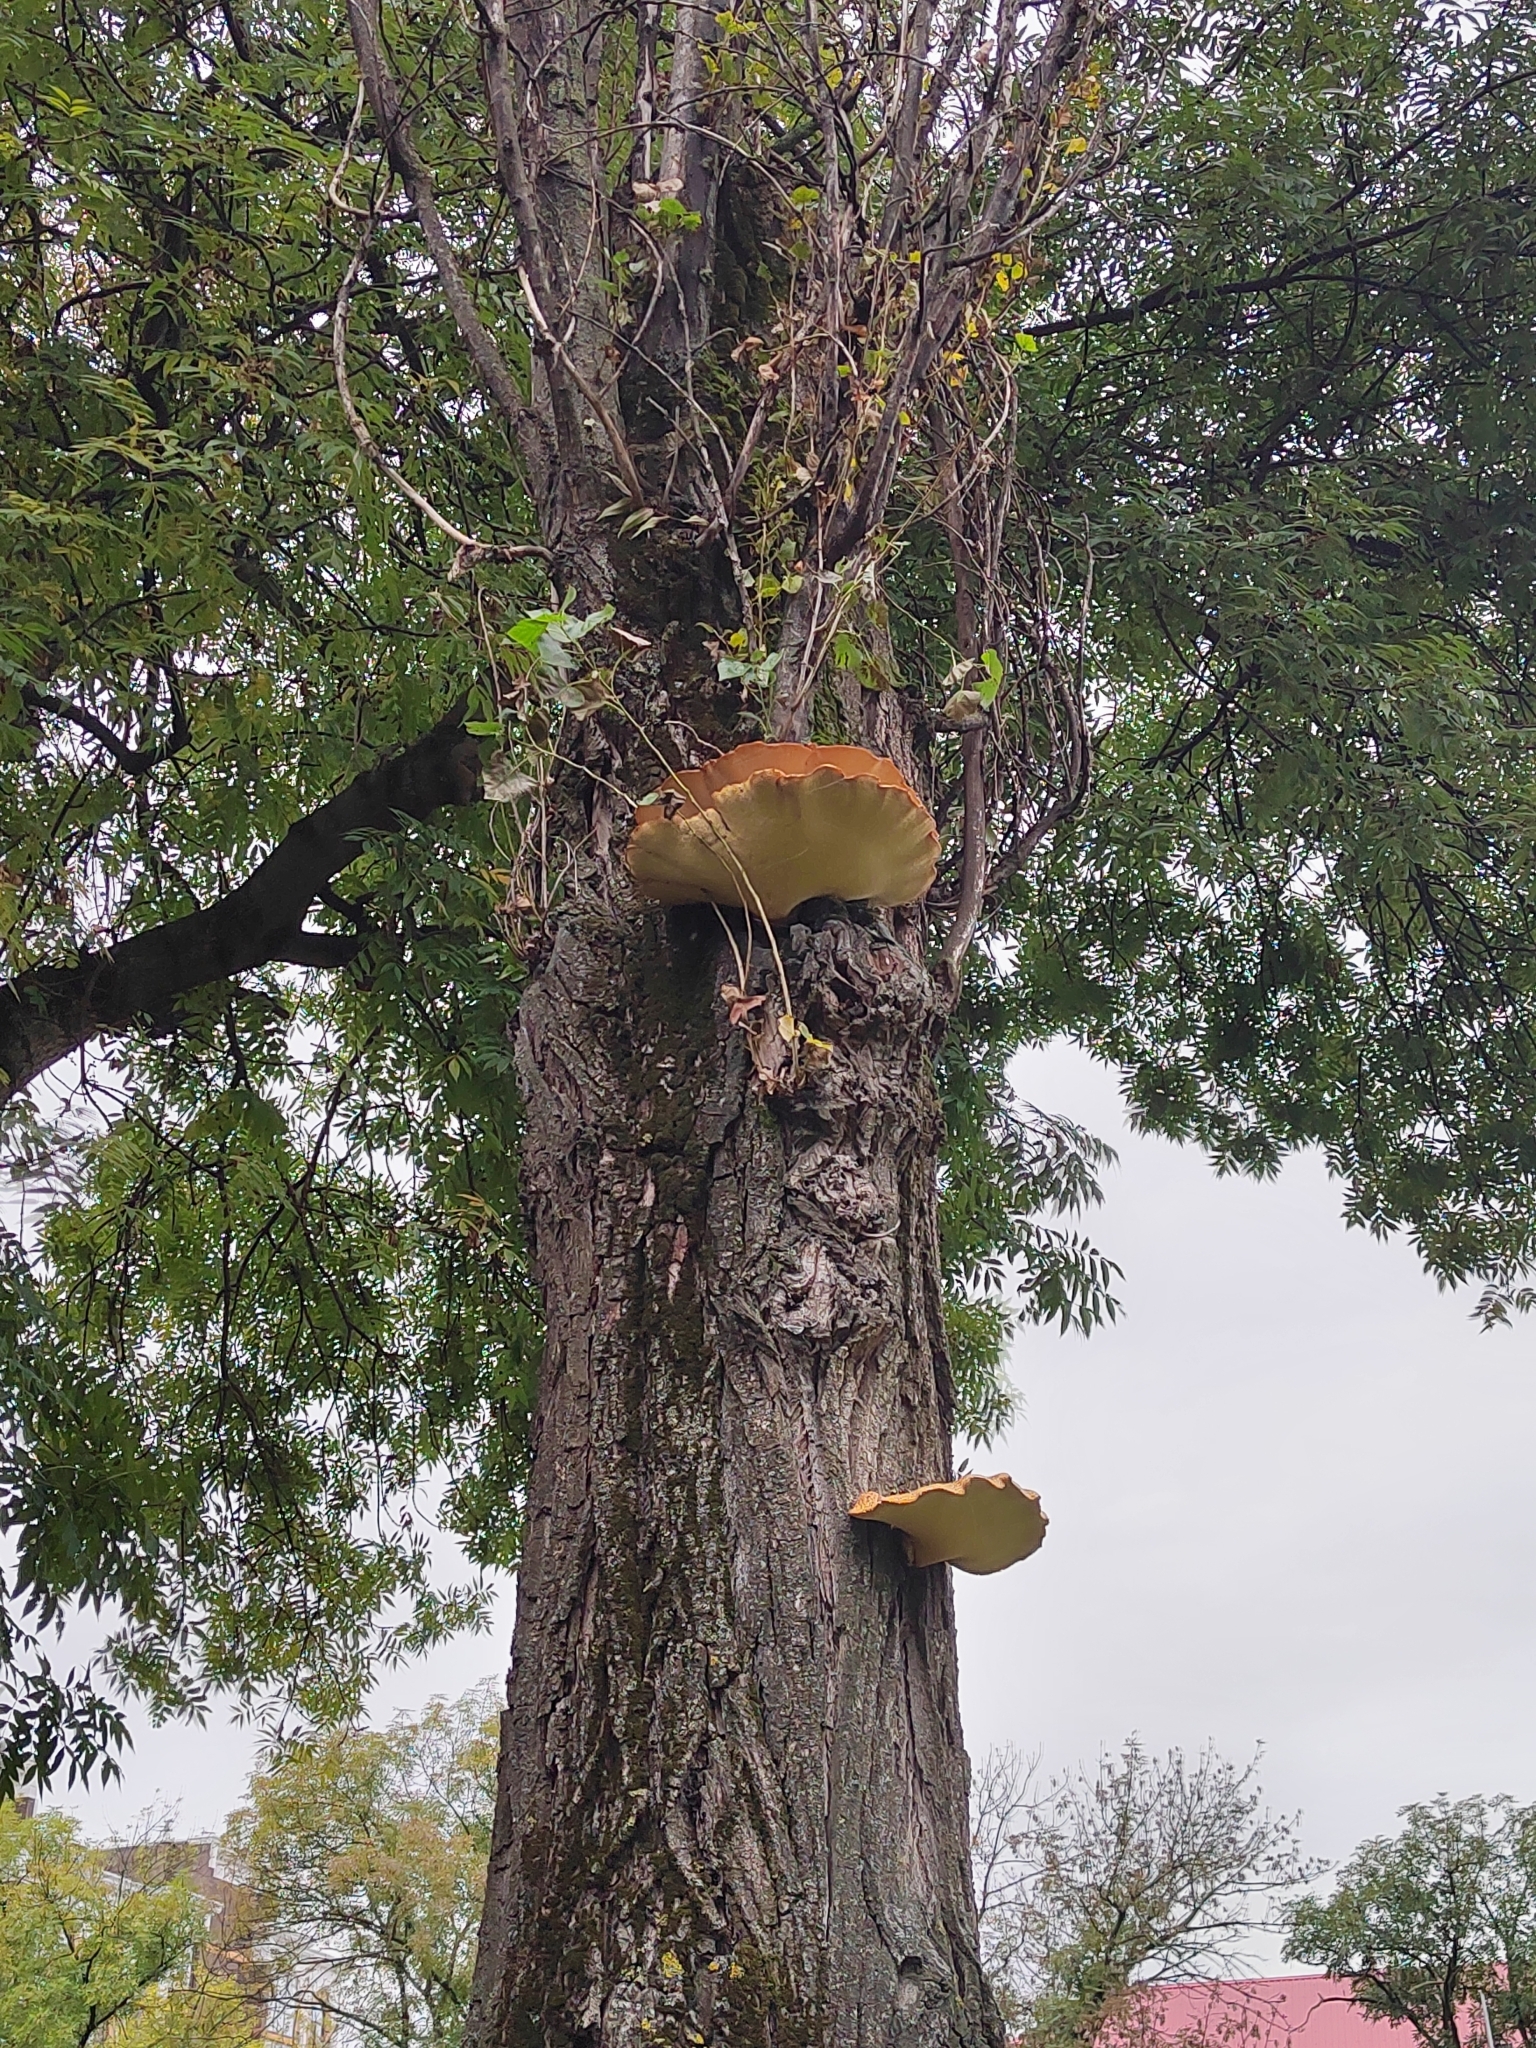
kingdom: Fungi
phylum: Basidiomycota
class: Agaricomycetes
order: Polyporales
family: Polyporaceae
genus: Cerioporus
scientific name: Cerioporus squamosus
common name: Dryad's saddle
